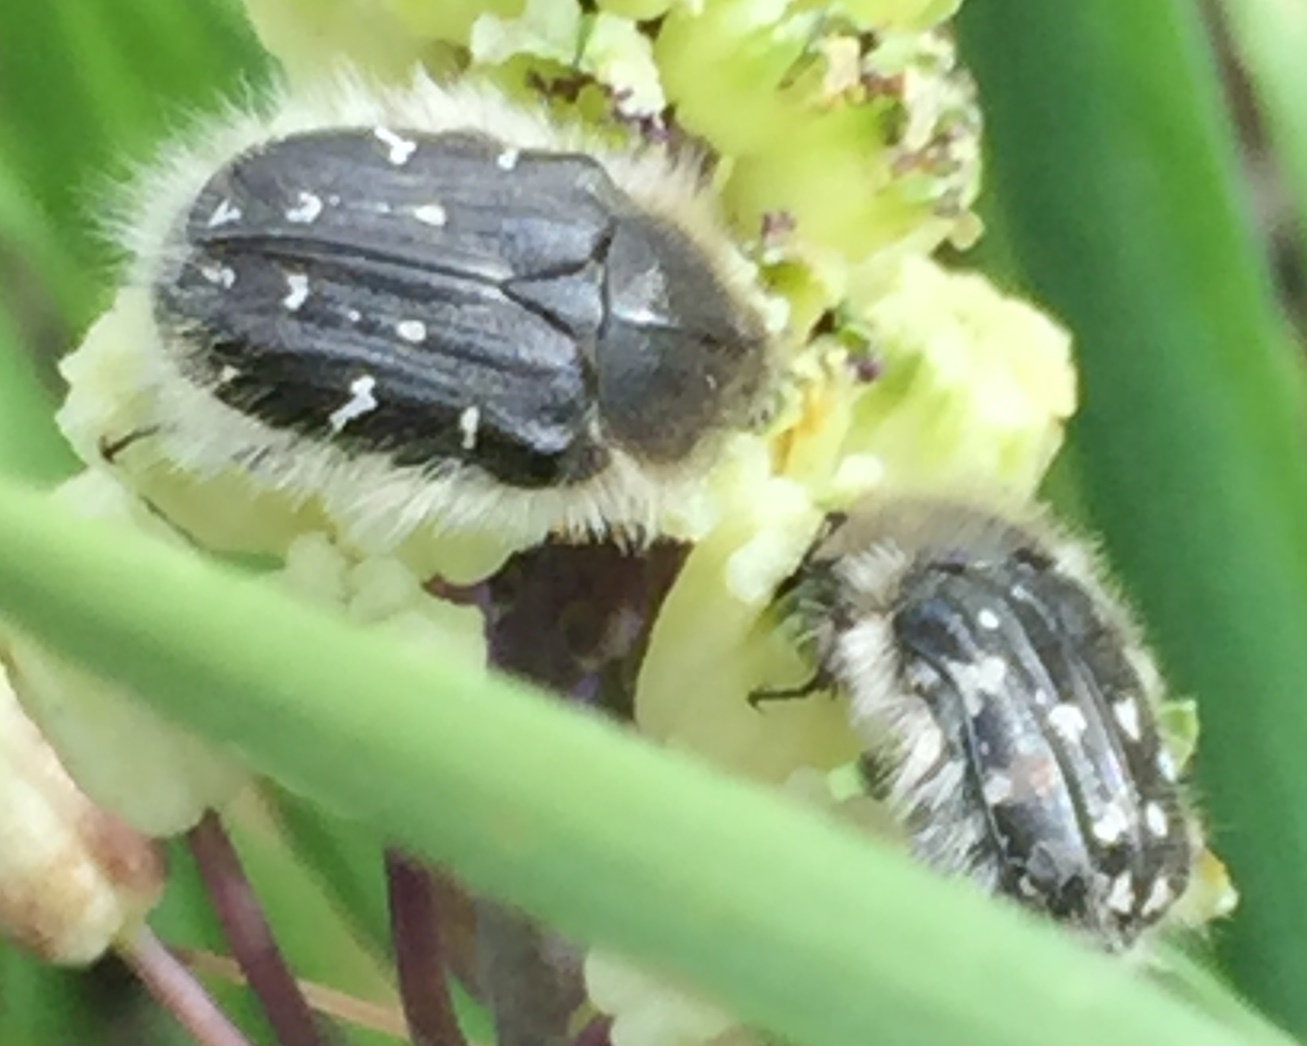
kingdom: Animalia
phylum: Arthropoda
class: Insecta
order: Coleoptera
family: Scarabaeidae
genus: Tropinota
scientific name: Tropinota hirta
